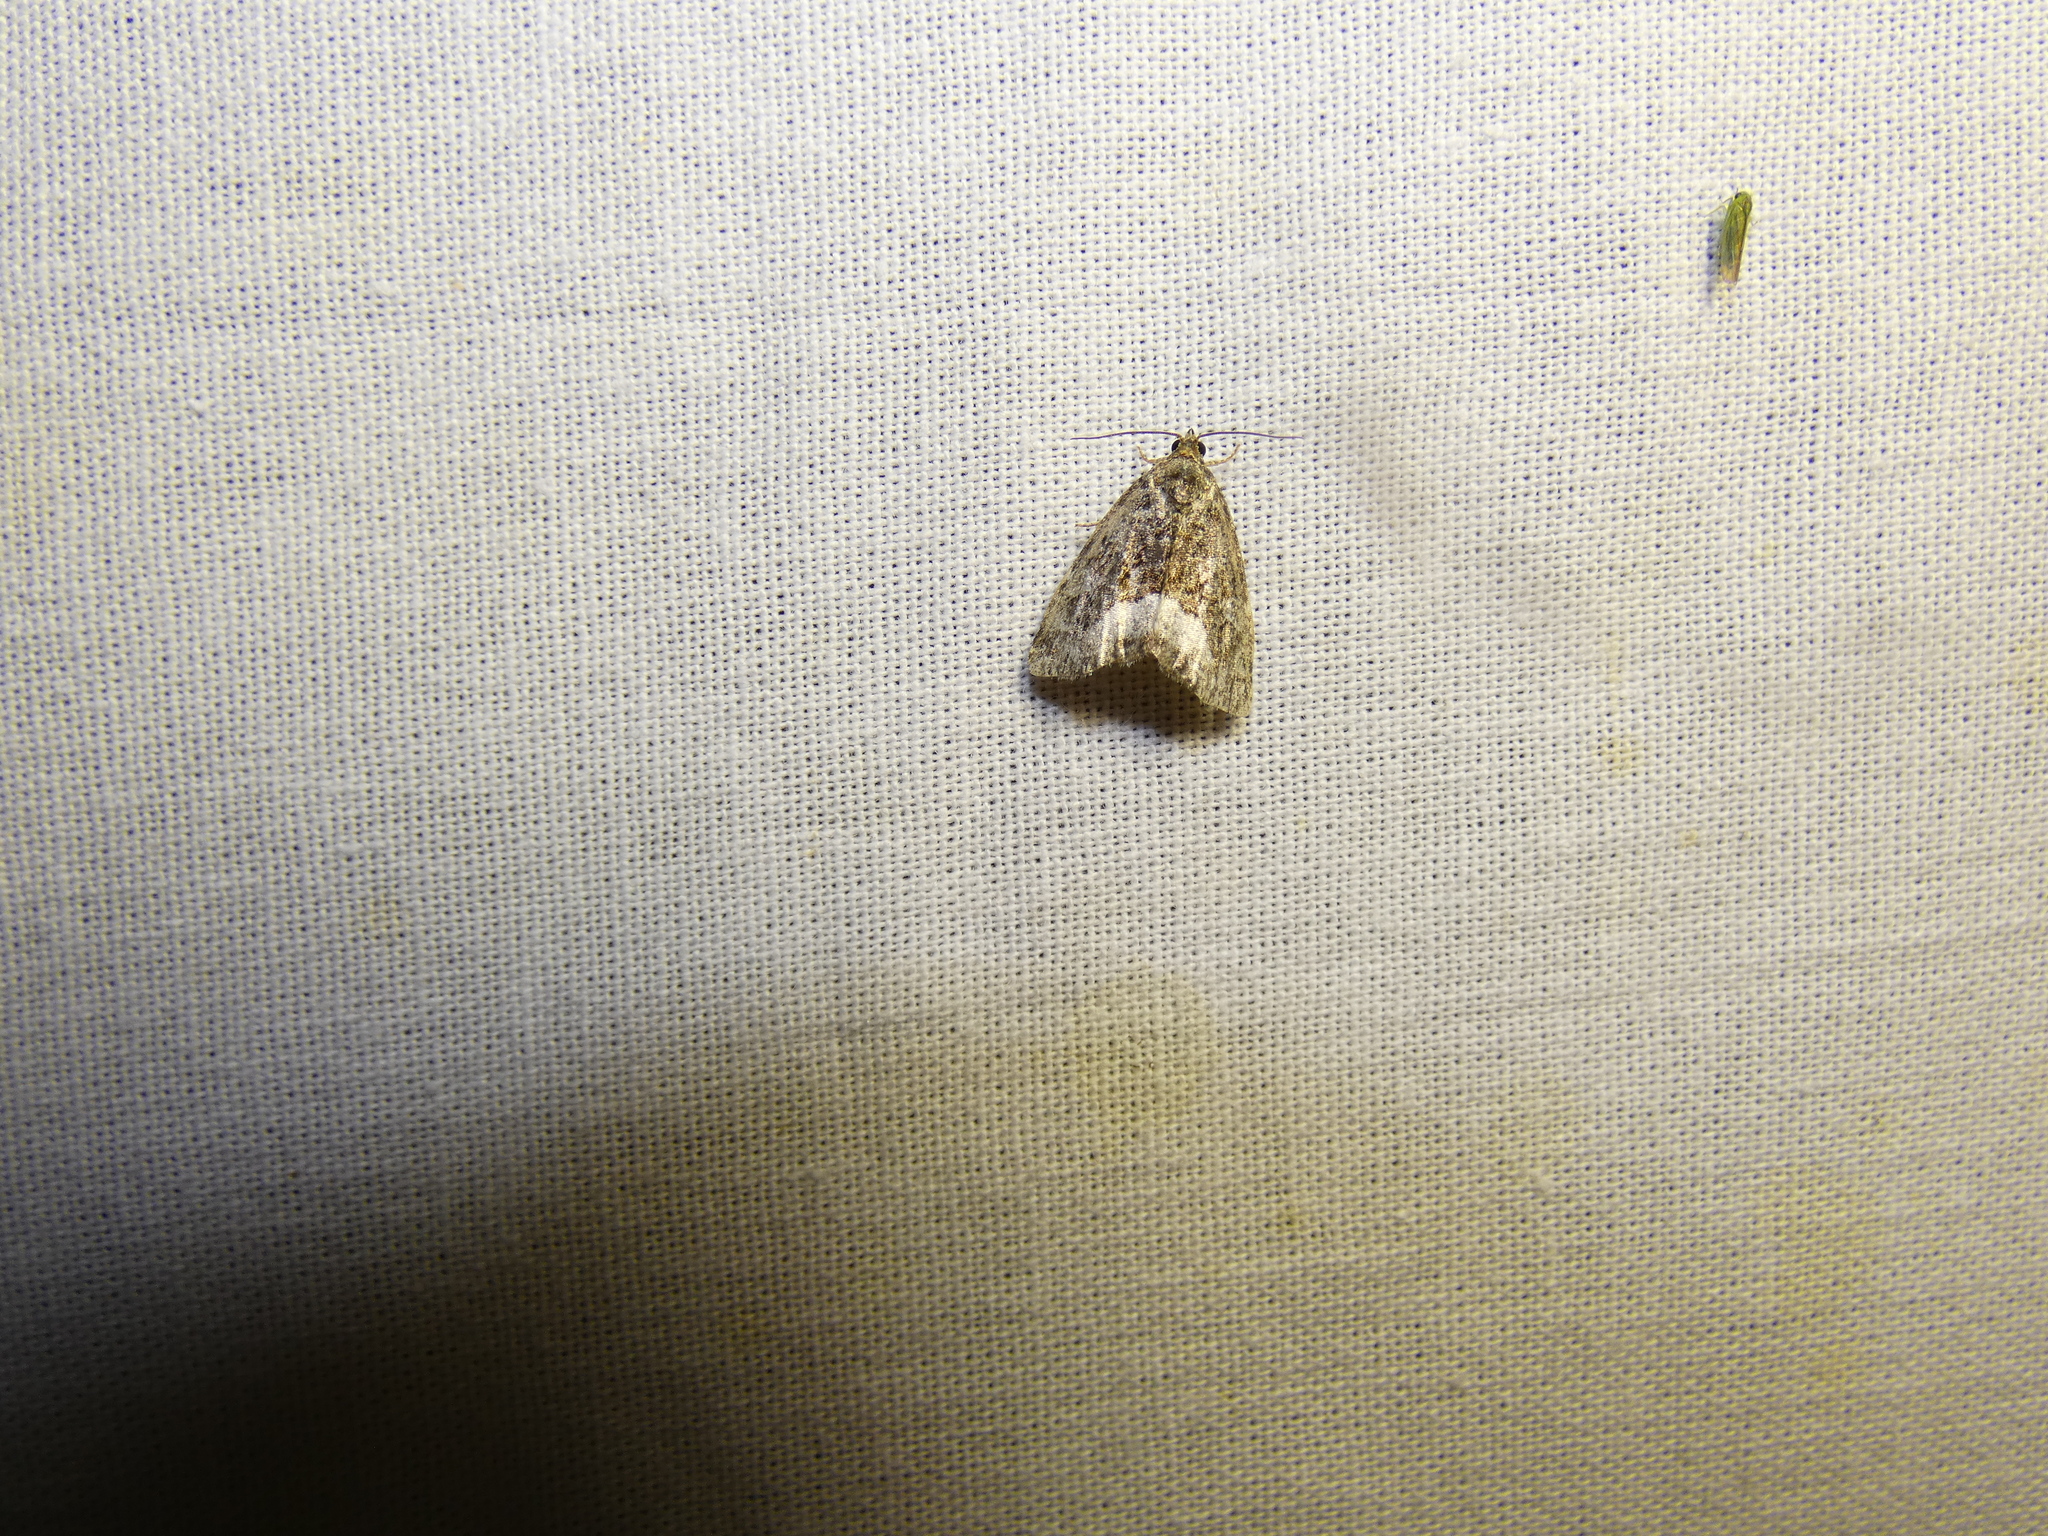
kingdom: Animalia
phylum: Arthropoda
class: Insecta
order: Lepidoptera
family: Noctuidae
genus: Deltote
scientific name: Deltote pygarga
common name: Marbled white spot
